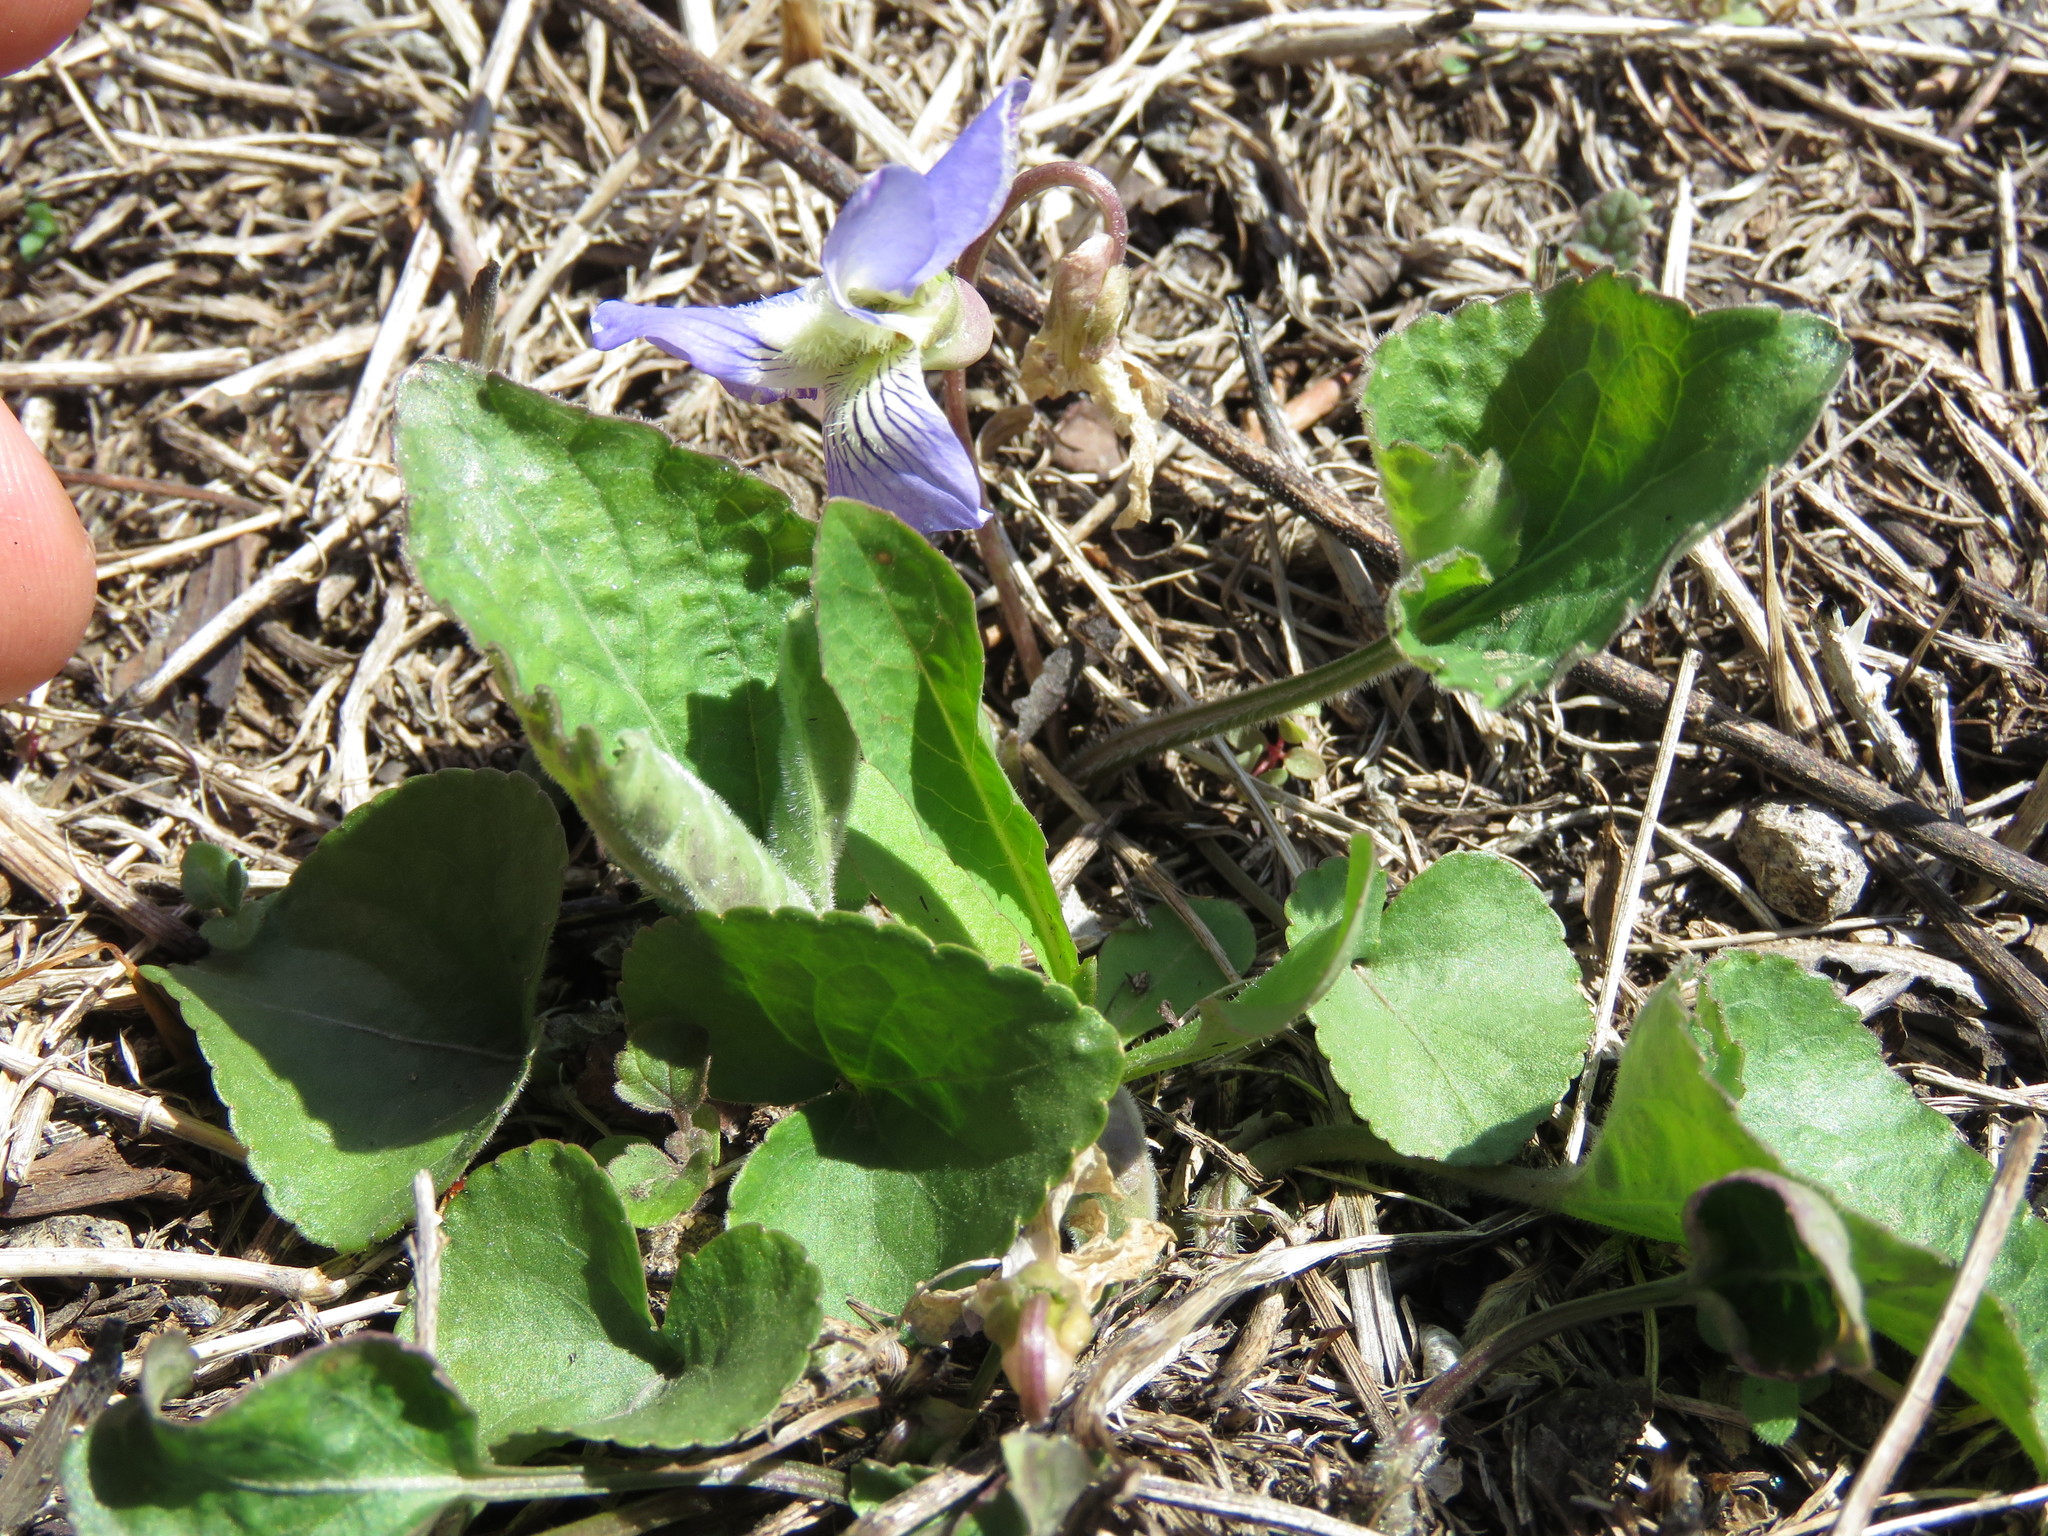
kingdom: Plantae
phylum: Tracheophyta
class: Magnoliopsida
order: Malpighiales
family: Violaceae
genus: Viola
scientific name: Viola septentrionalis
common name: Northern woodland violet
